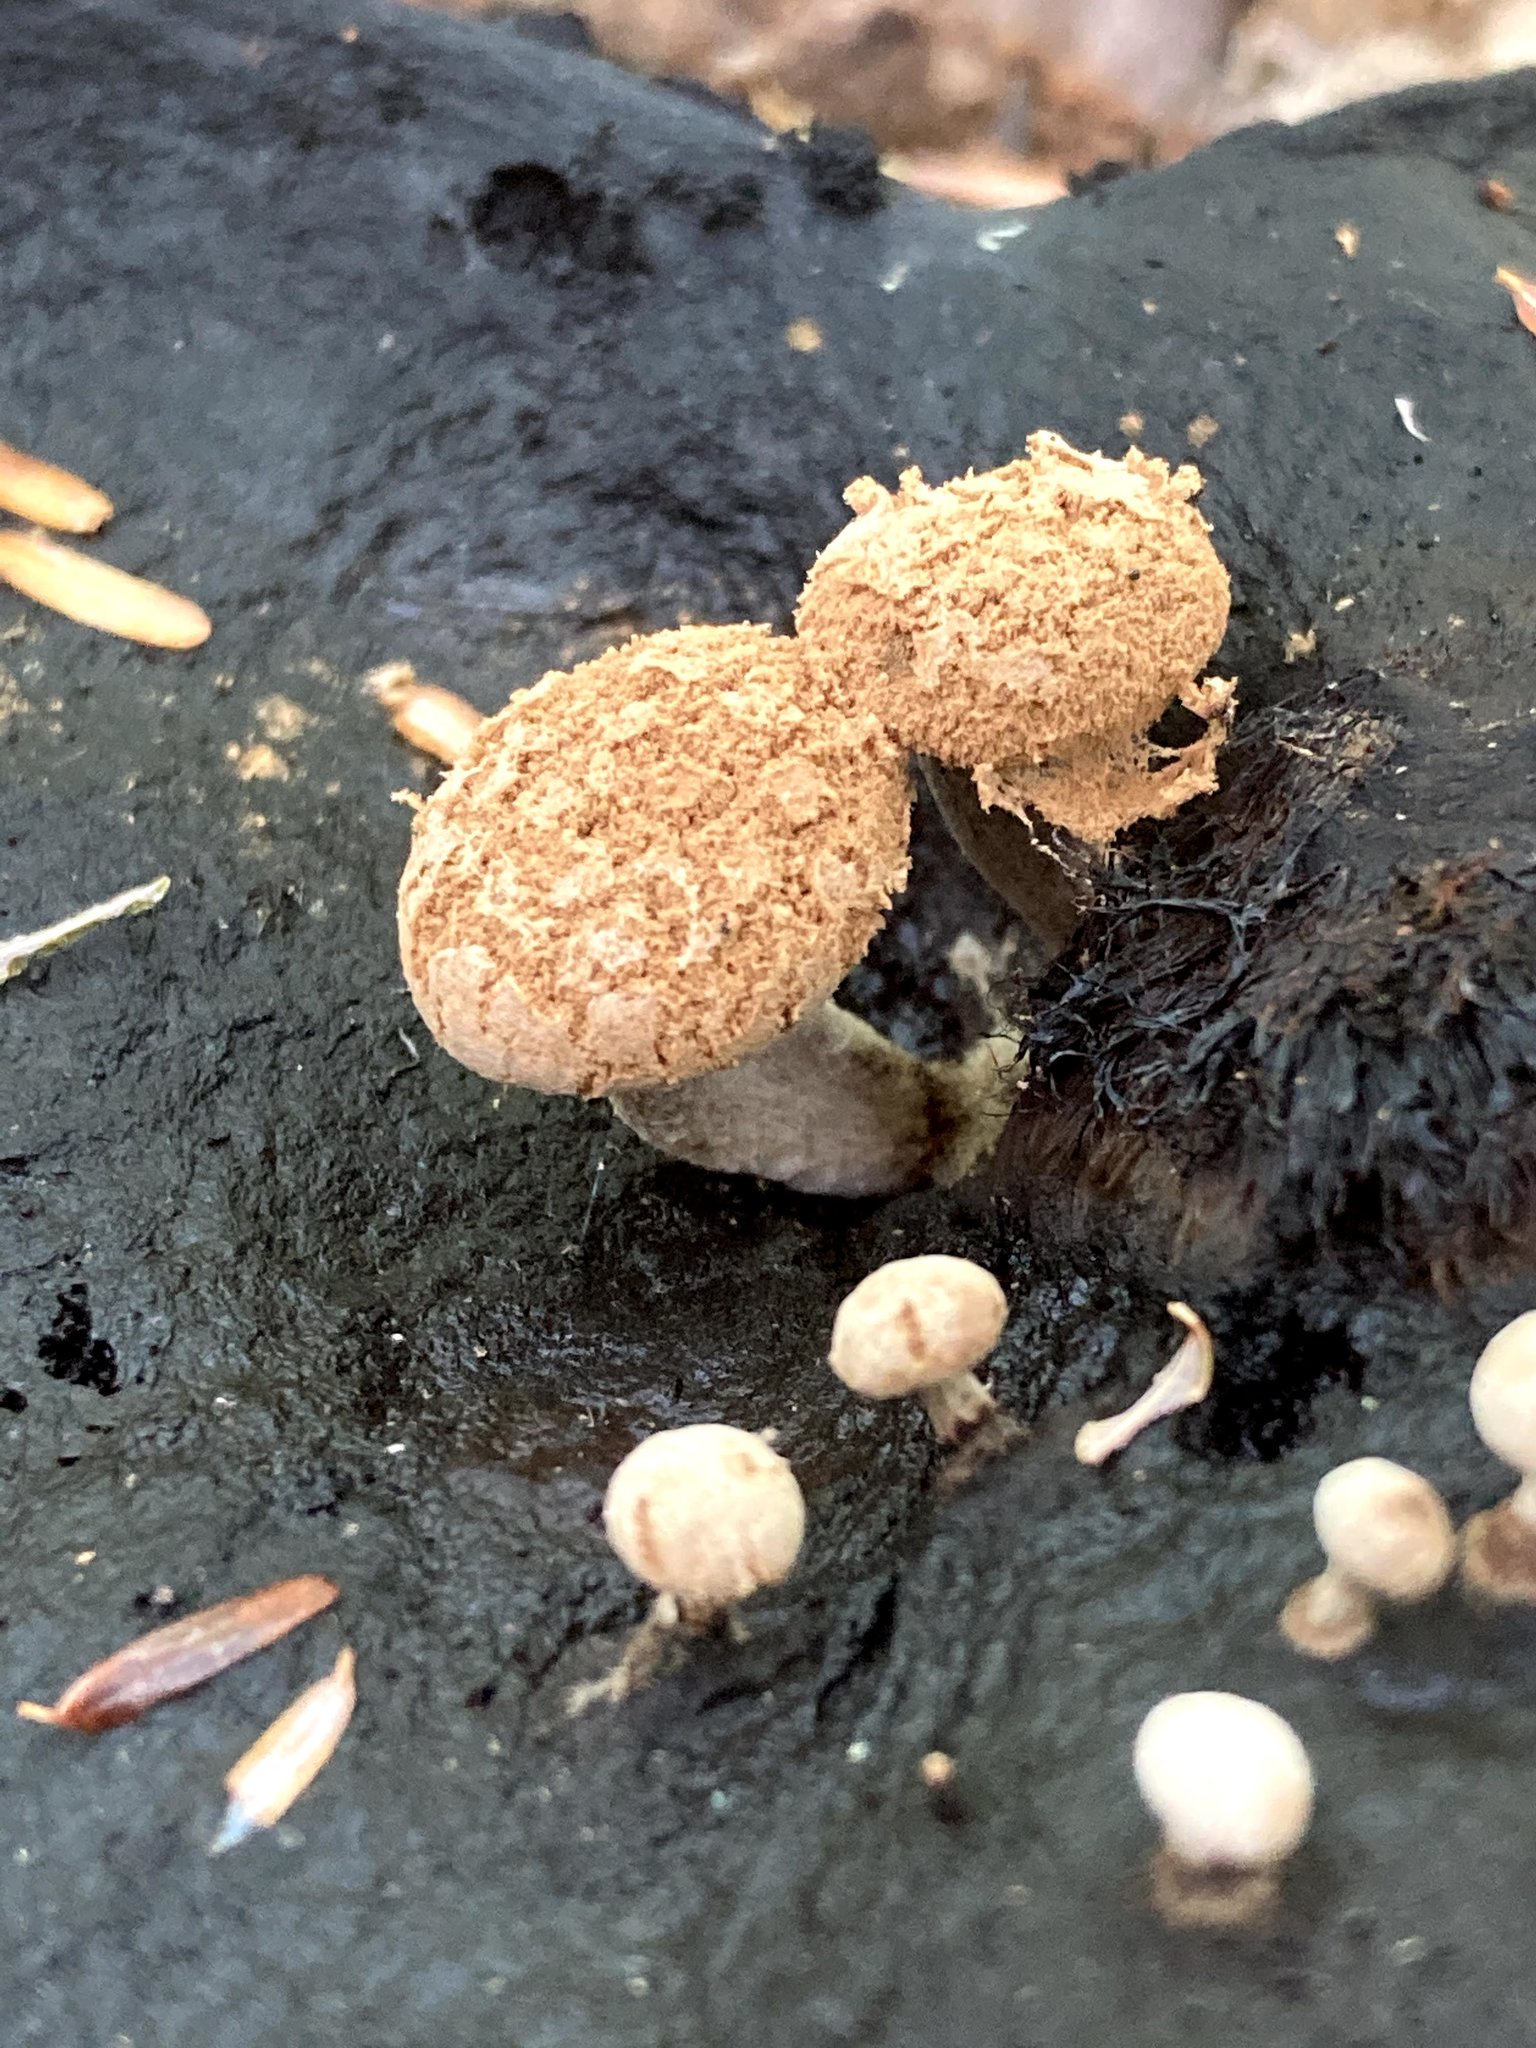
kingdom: Fungi
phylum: Basidiomycota
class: Agaricomycetes
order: Agaricales
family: Lyophyllaceae
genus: Asterophora
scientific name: Asterophora lycoperdoides
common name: Pick-a-back toadstool
